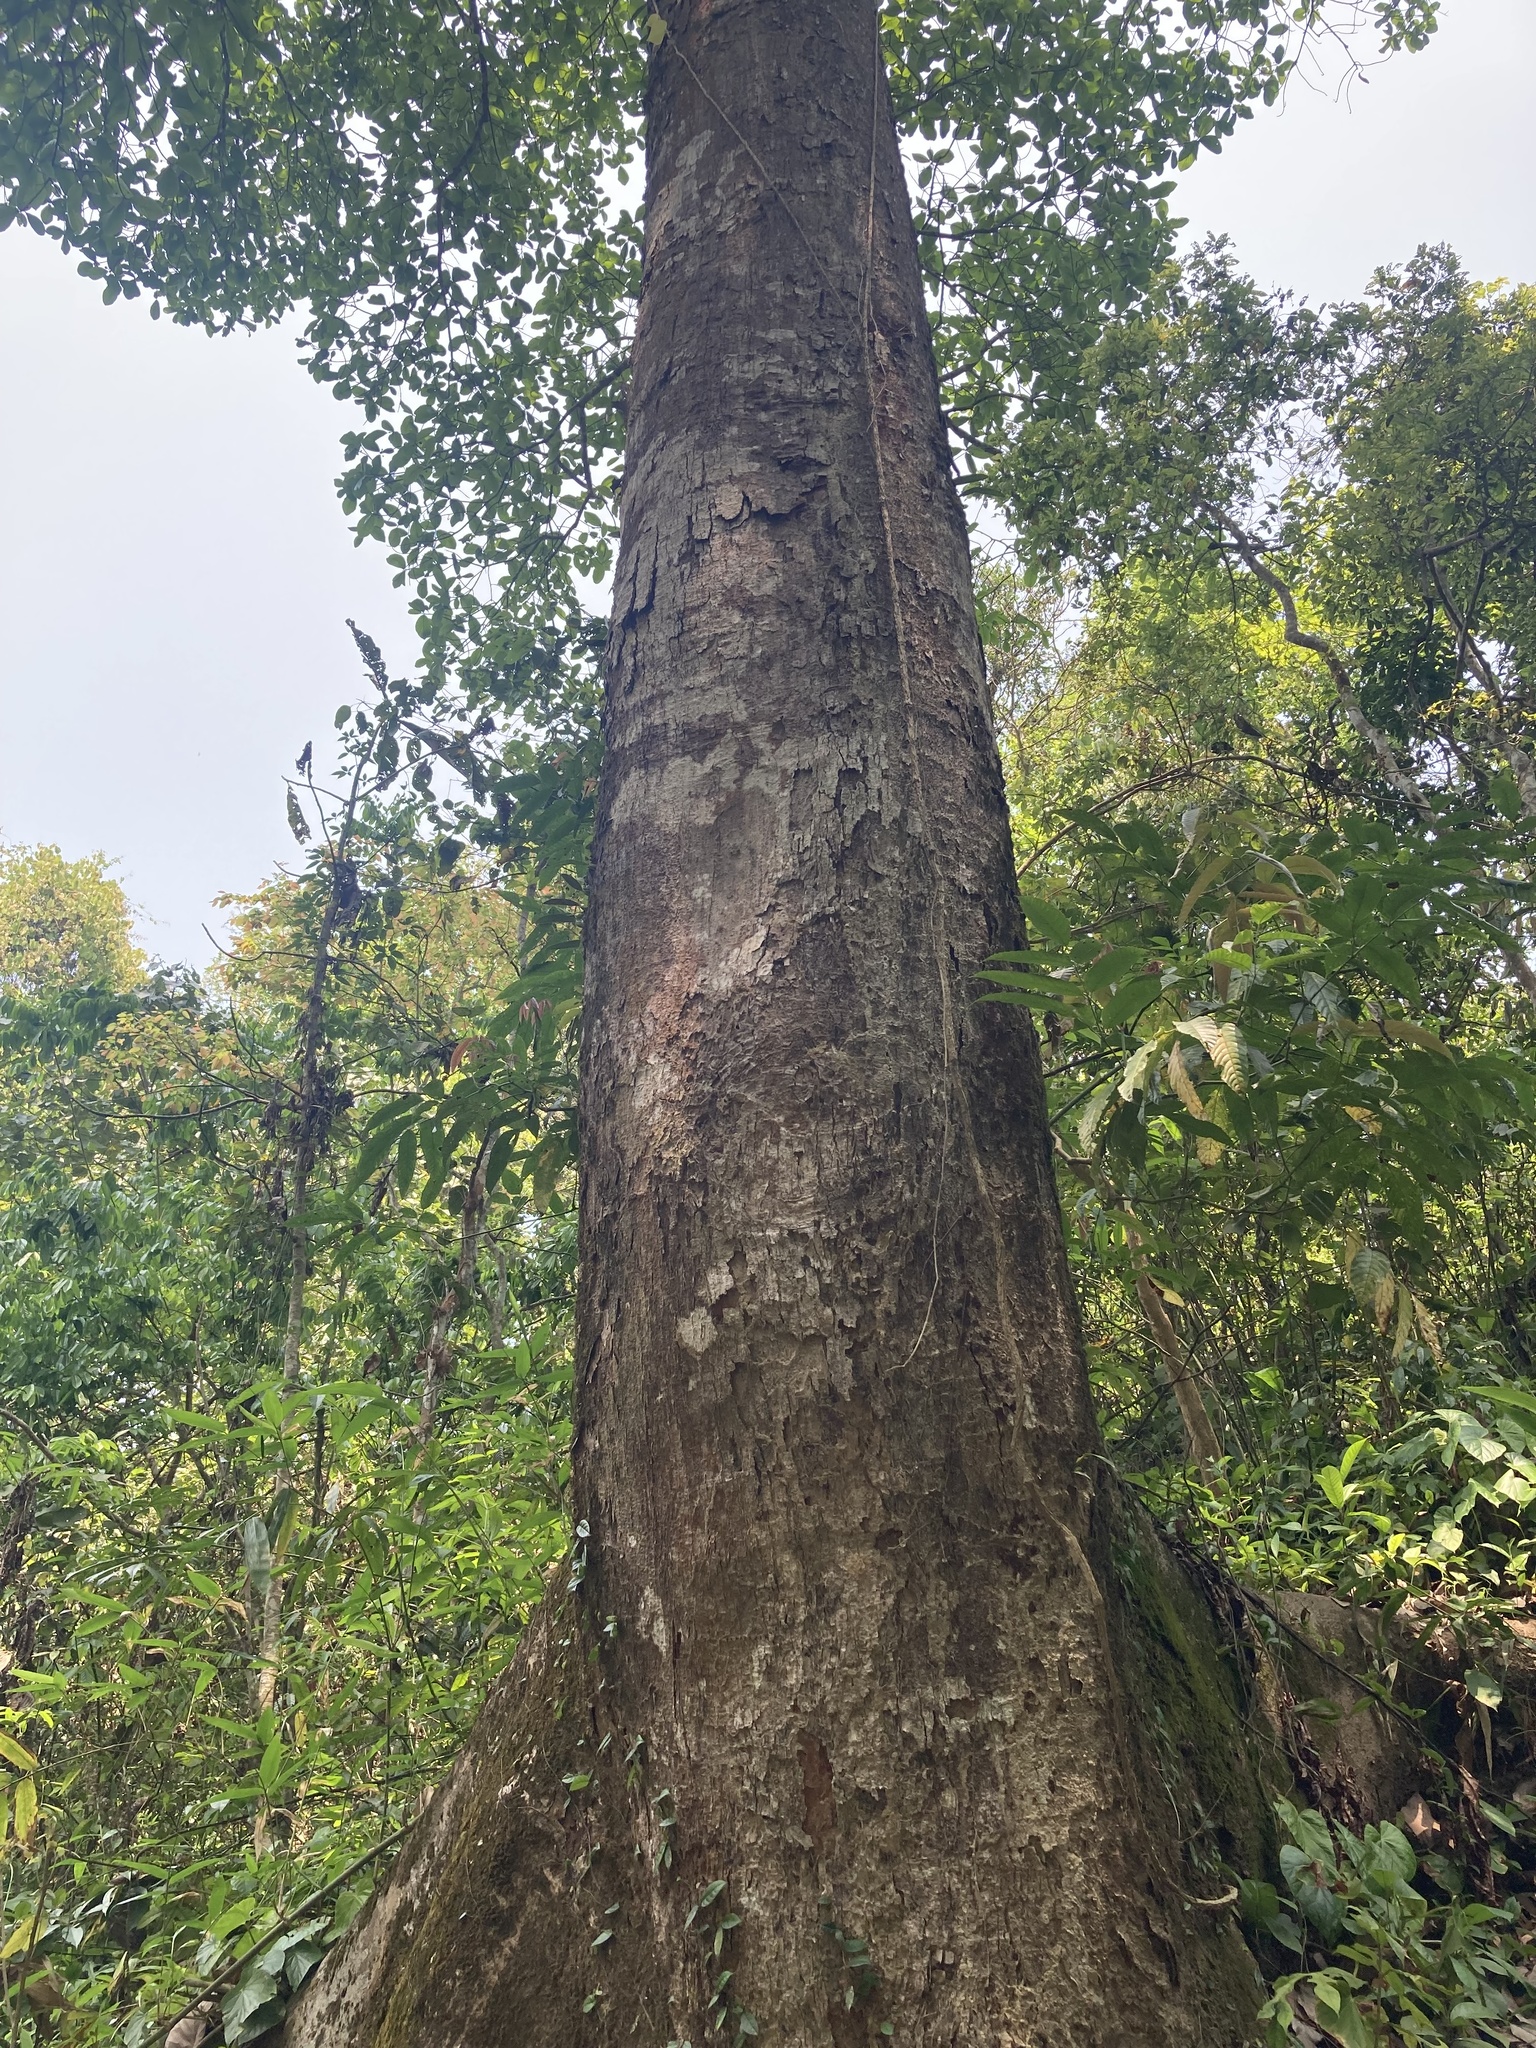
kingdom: Plantae
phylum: Tracheophyta
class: Magnoliopsida
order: Rosales
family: Moraceae
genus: Artocarpus
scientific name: Artocarpus chama
